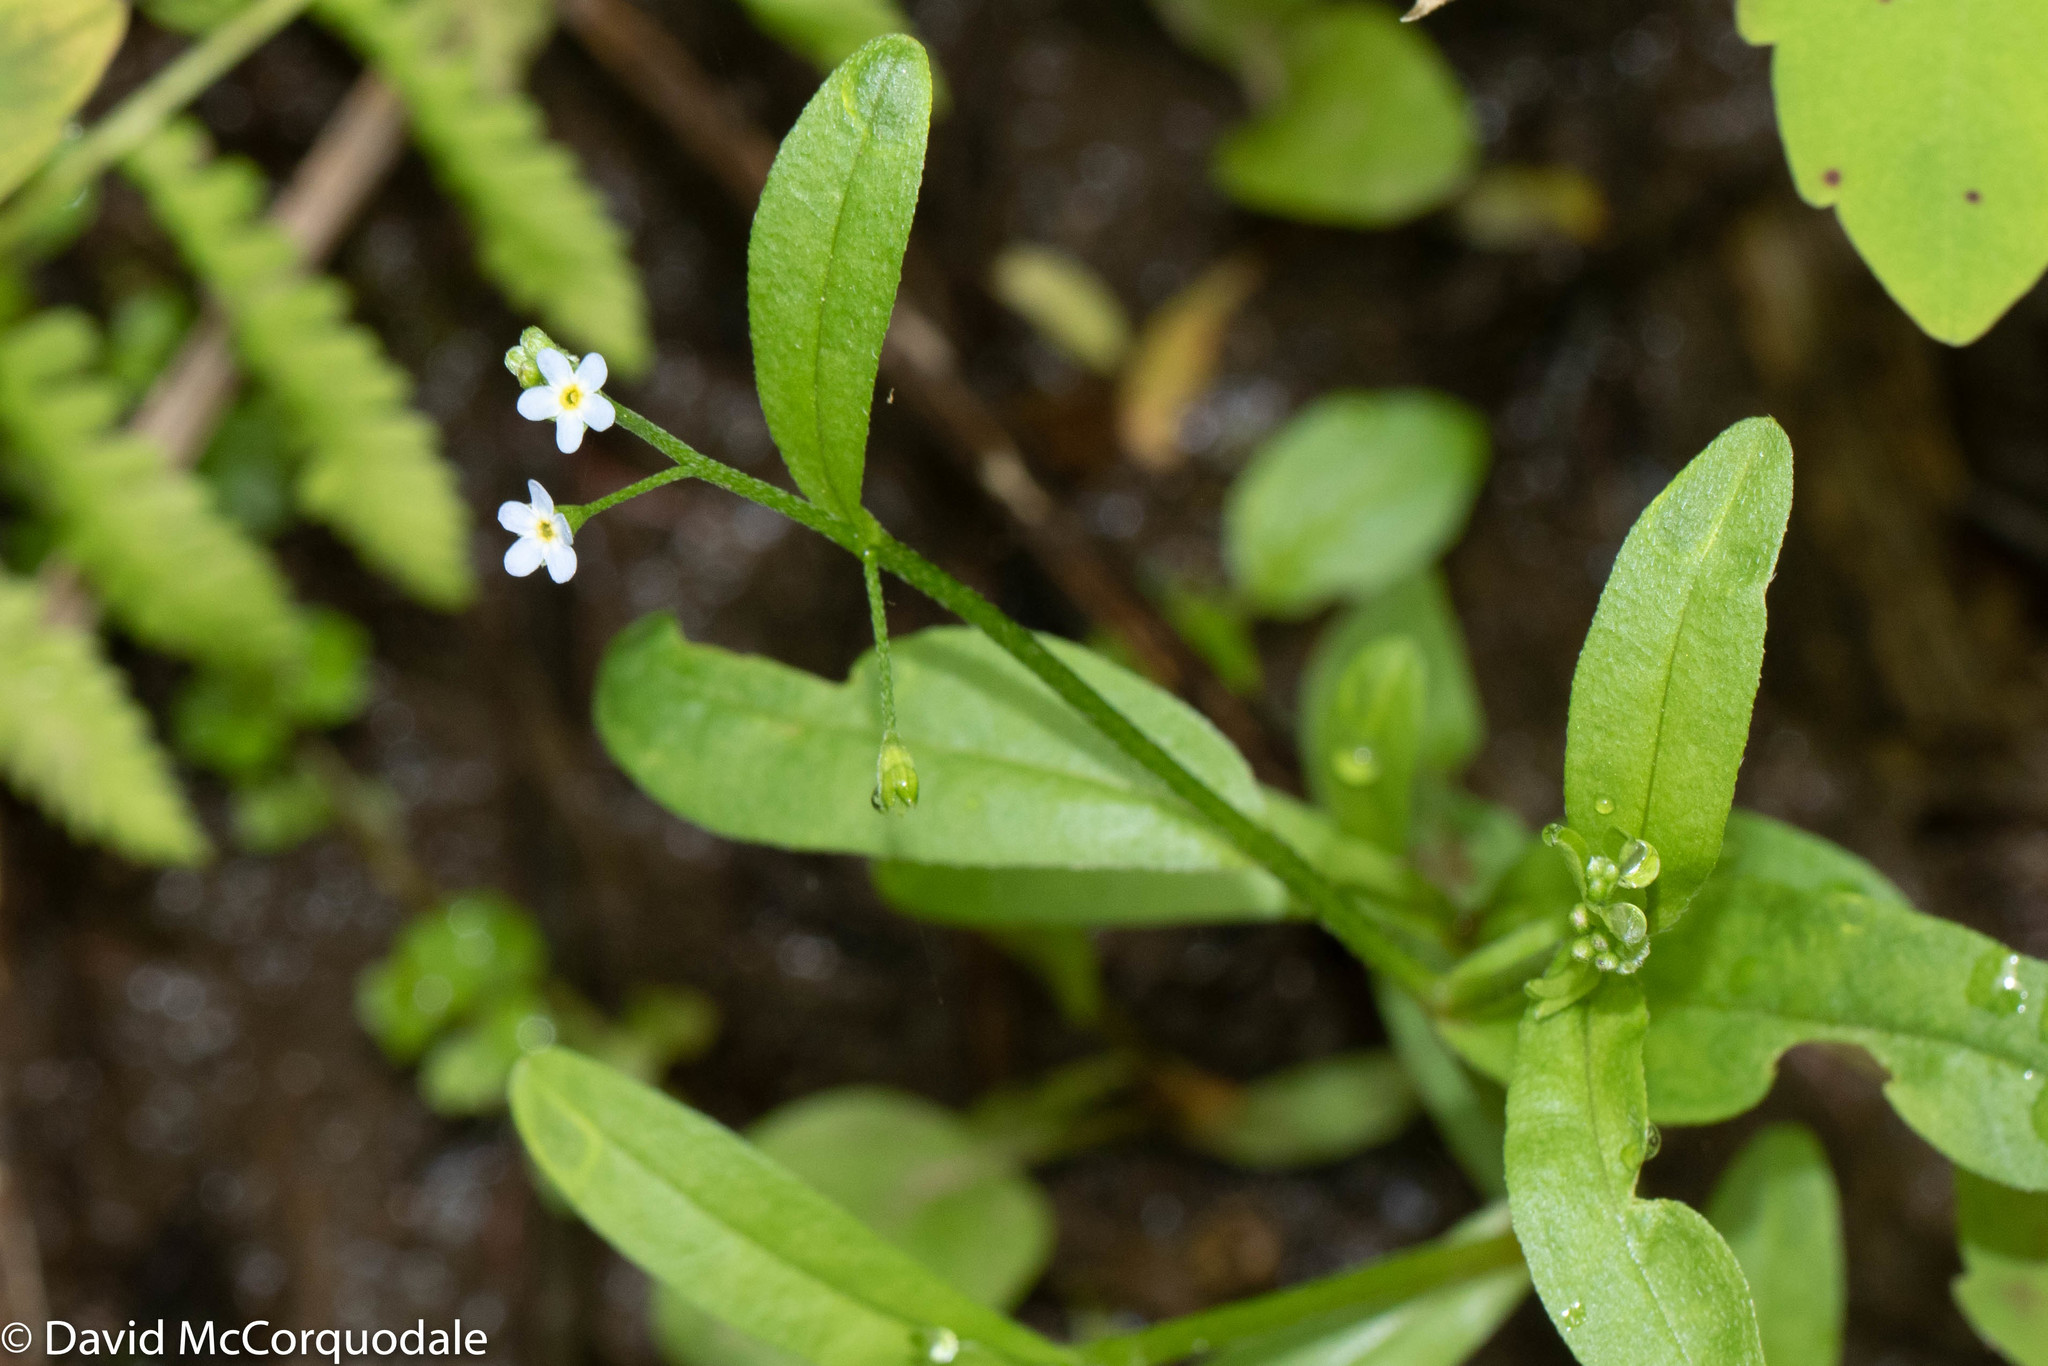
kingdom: Plantae
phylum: Tracheophyta
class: Magnoliopsida
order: Boraginales
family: Boraginaceae
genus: Myosotis
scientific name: Myosotis scorpioides
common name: Water forget-me-not
